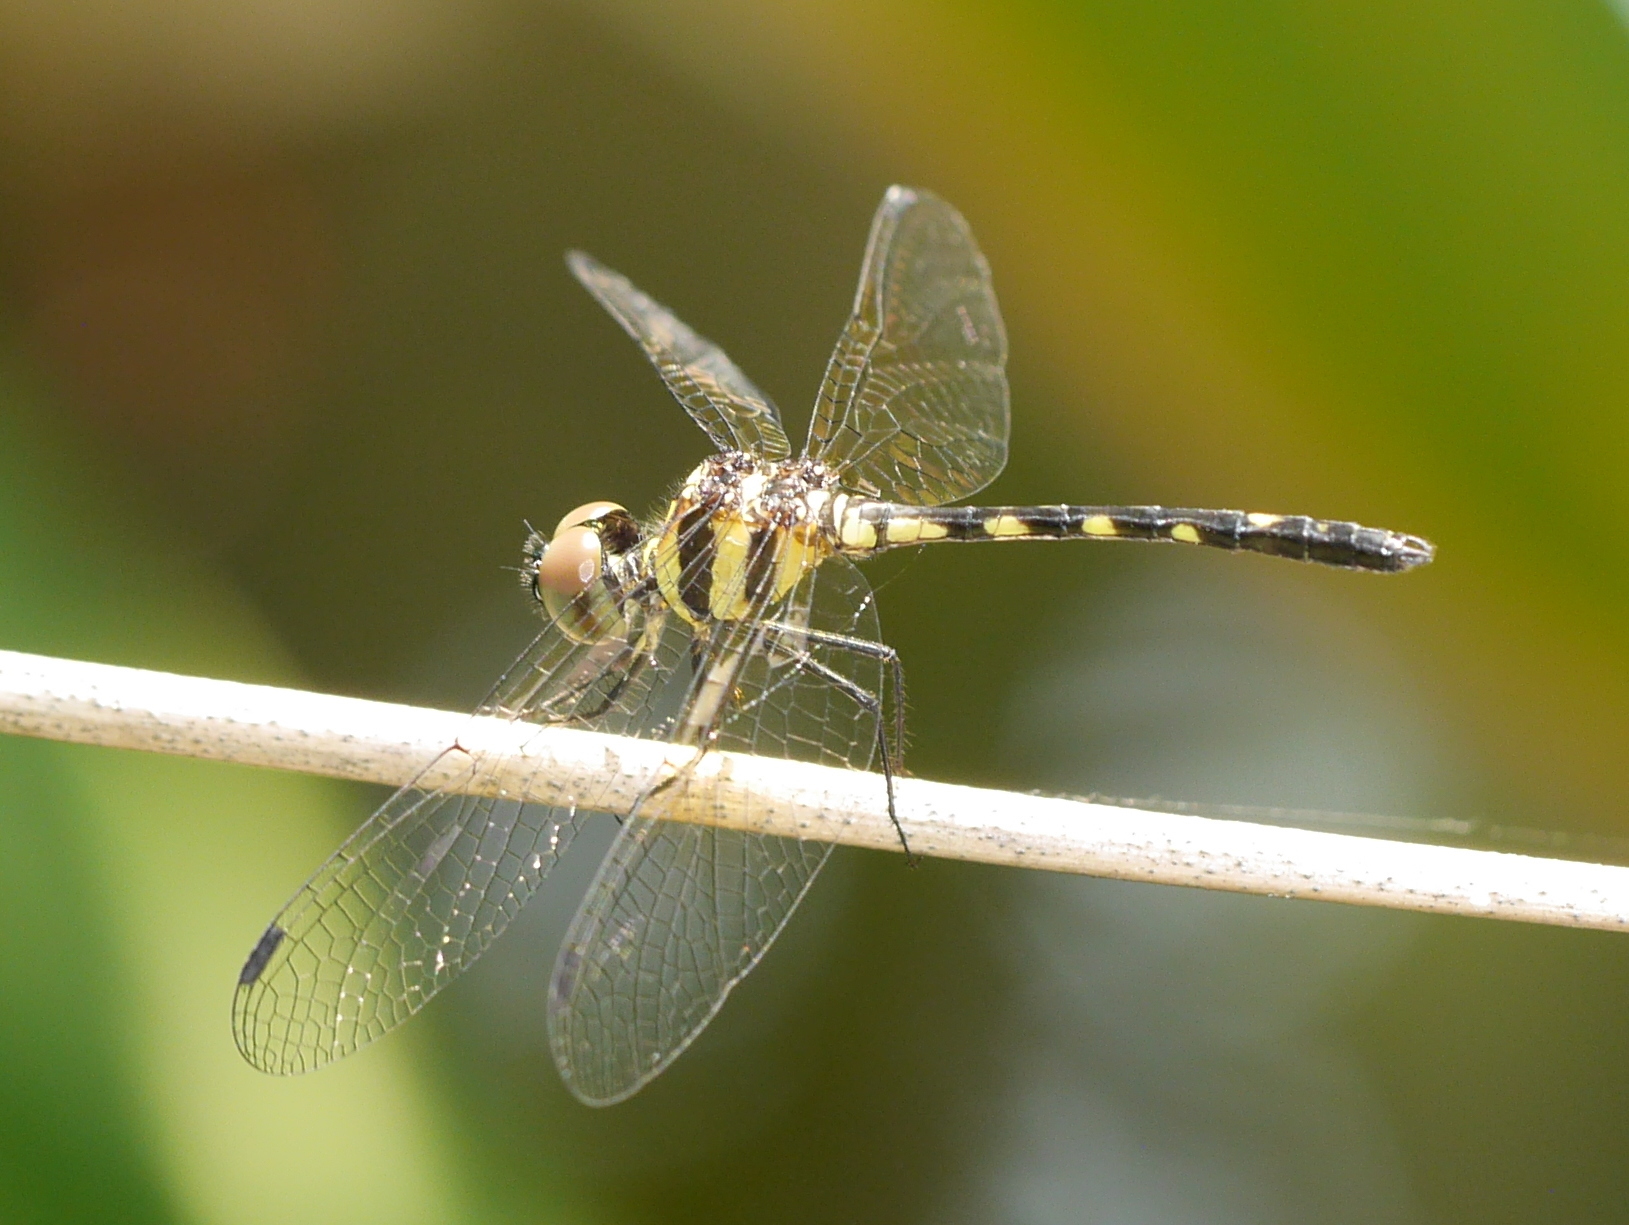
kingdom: Animalia
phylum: Arthropoda
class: Insecta
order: Odonata
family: Libellulidae
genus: Tetrathemis
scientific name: Tetrathemis hyalina
